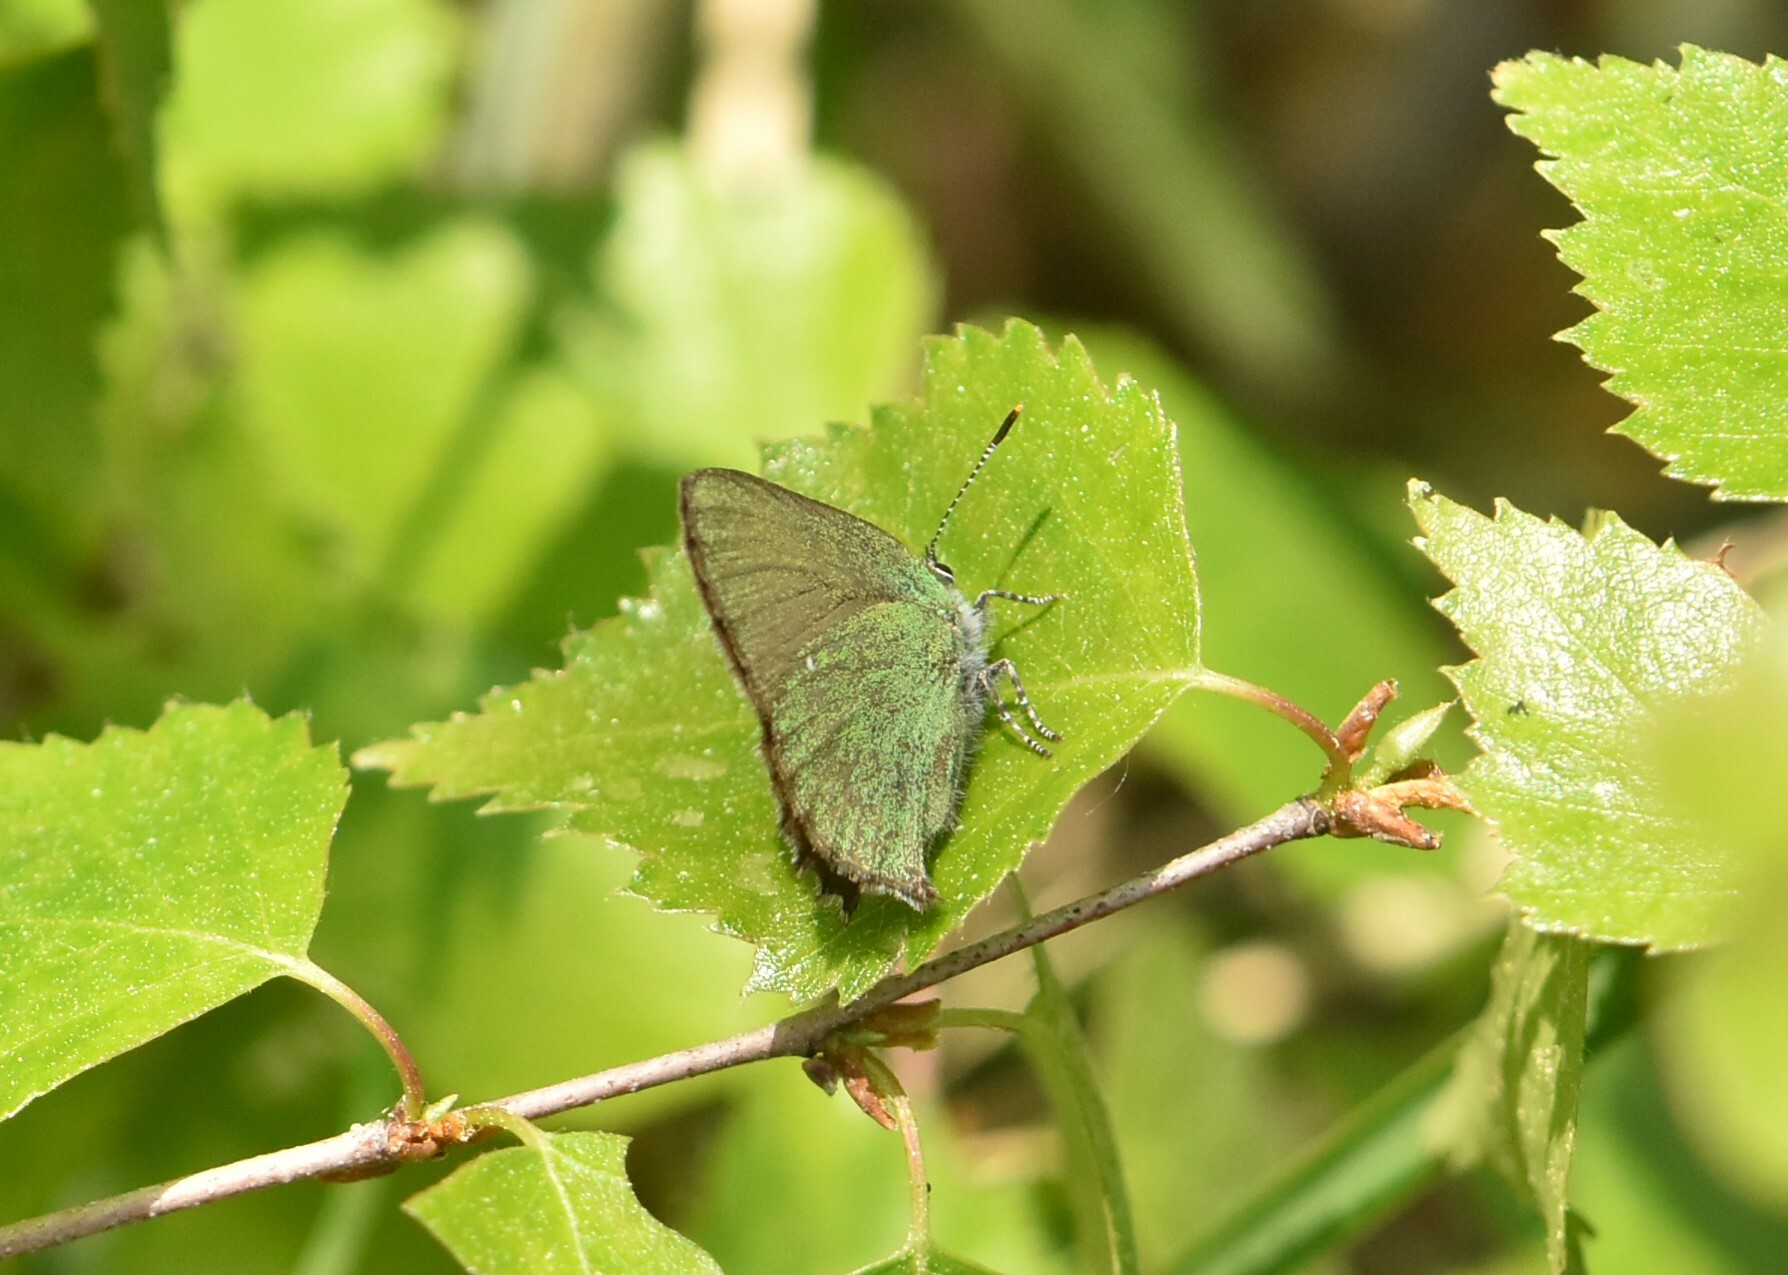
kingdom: Animalia
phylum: Arthropoda
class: Insecta
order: Lepidoptera
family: Lycaenidae
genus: Callophrys
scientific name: Callophrys rubi
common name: Green hairstreak
